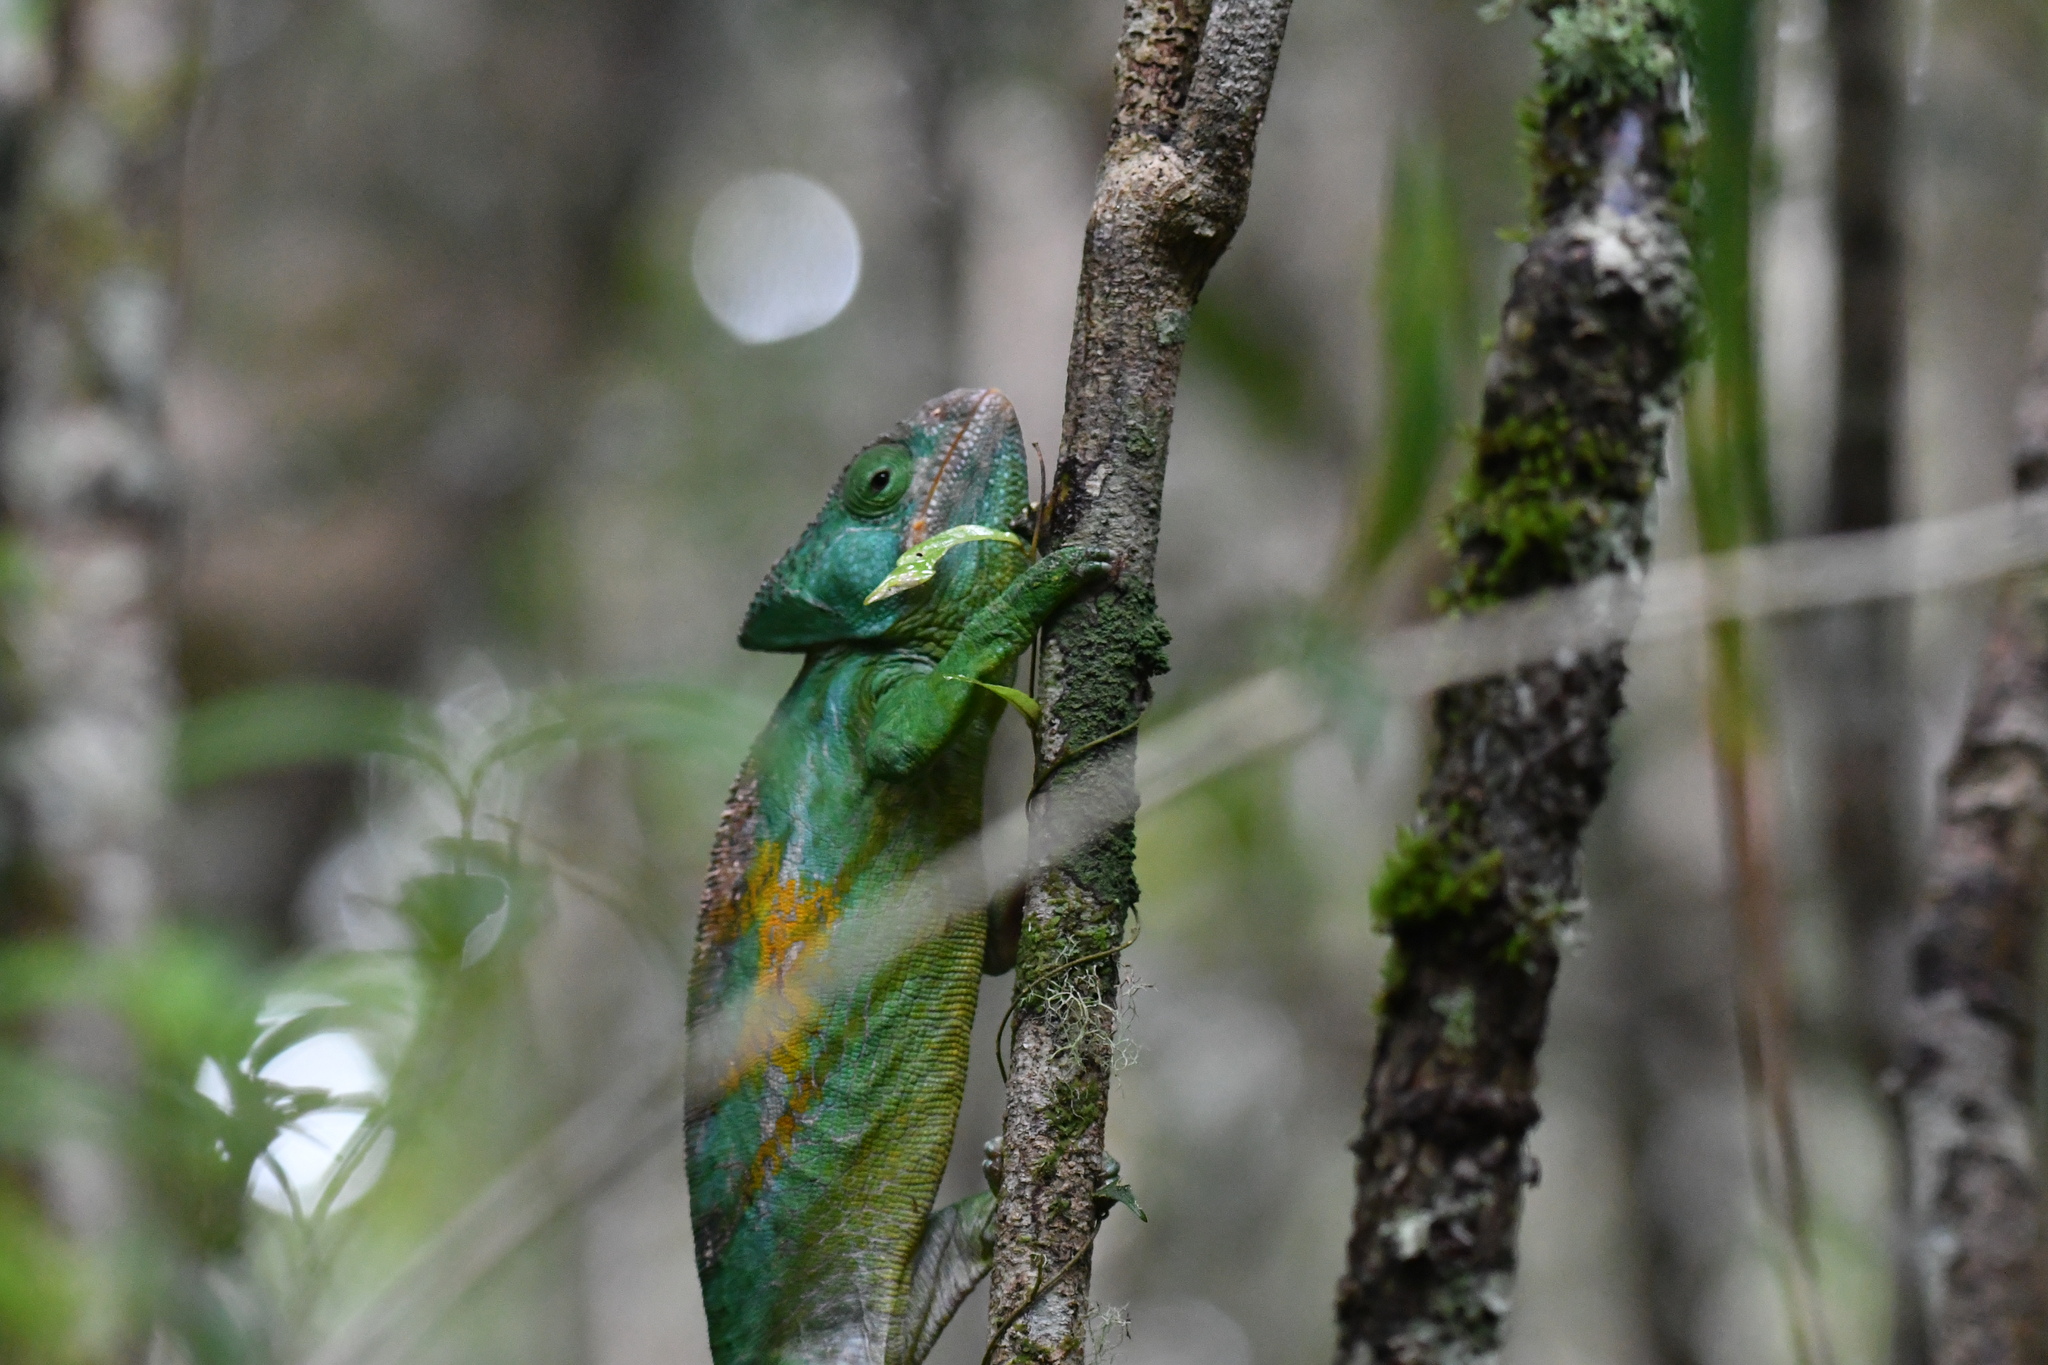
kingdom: Animalia
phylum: Chordata
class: Squamata
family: Chamaeleonidae
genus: Calumma
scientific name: Calumma parsonii
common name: Parson's chameleon
